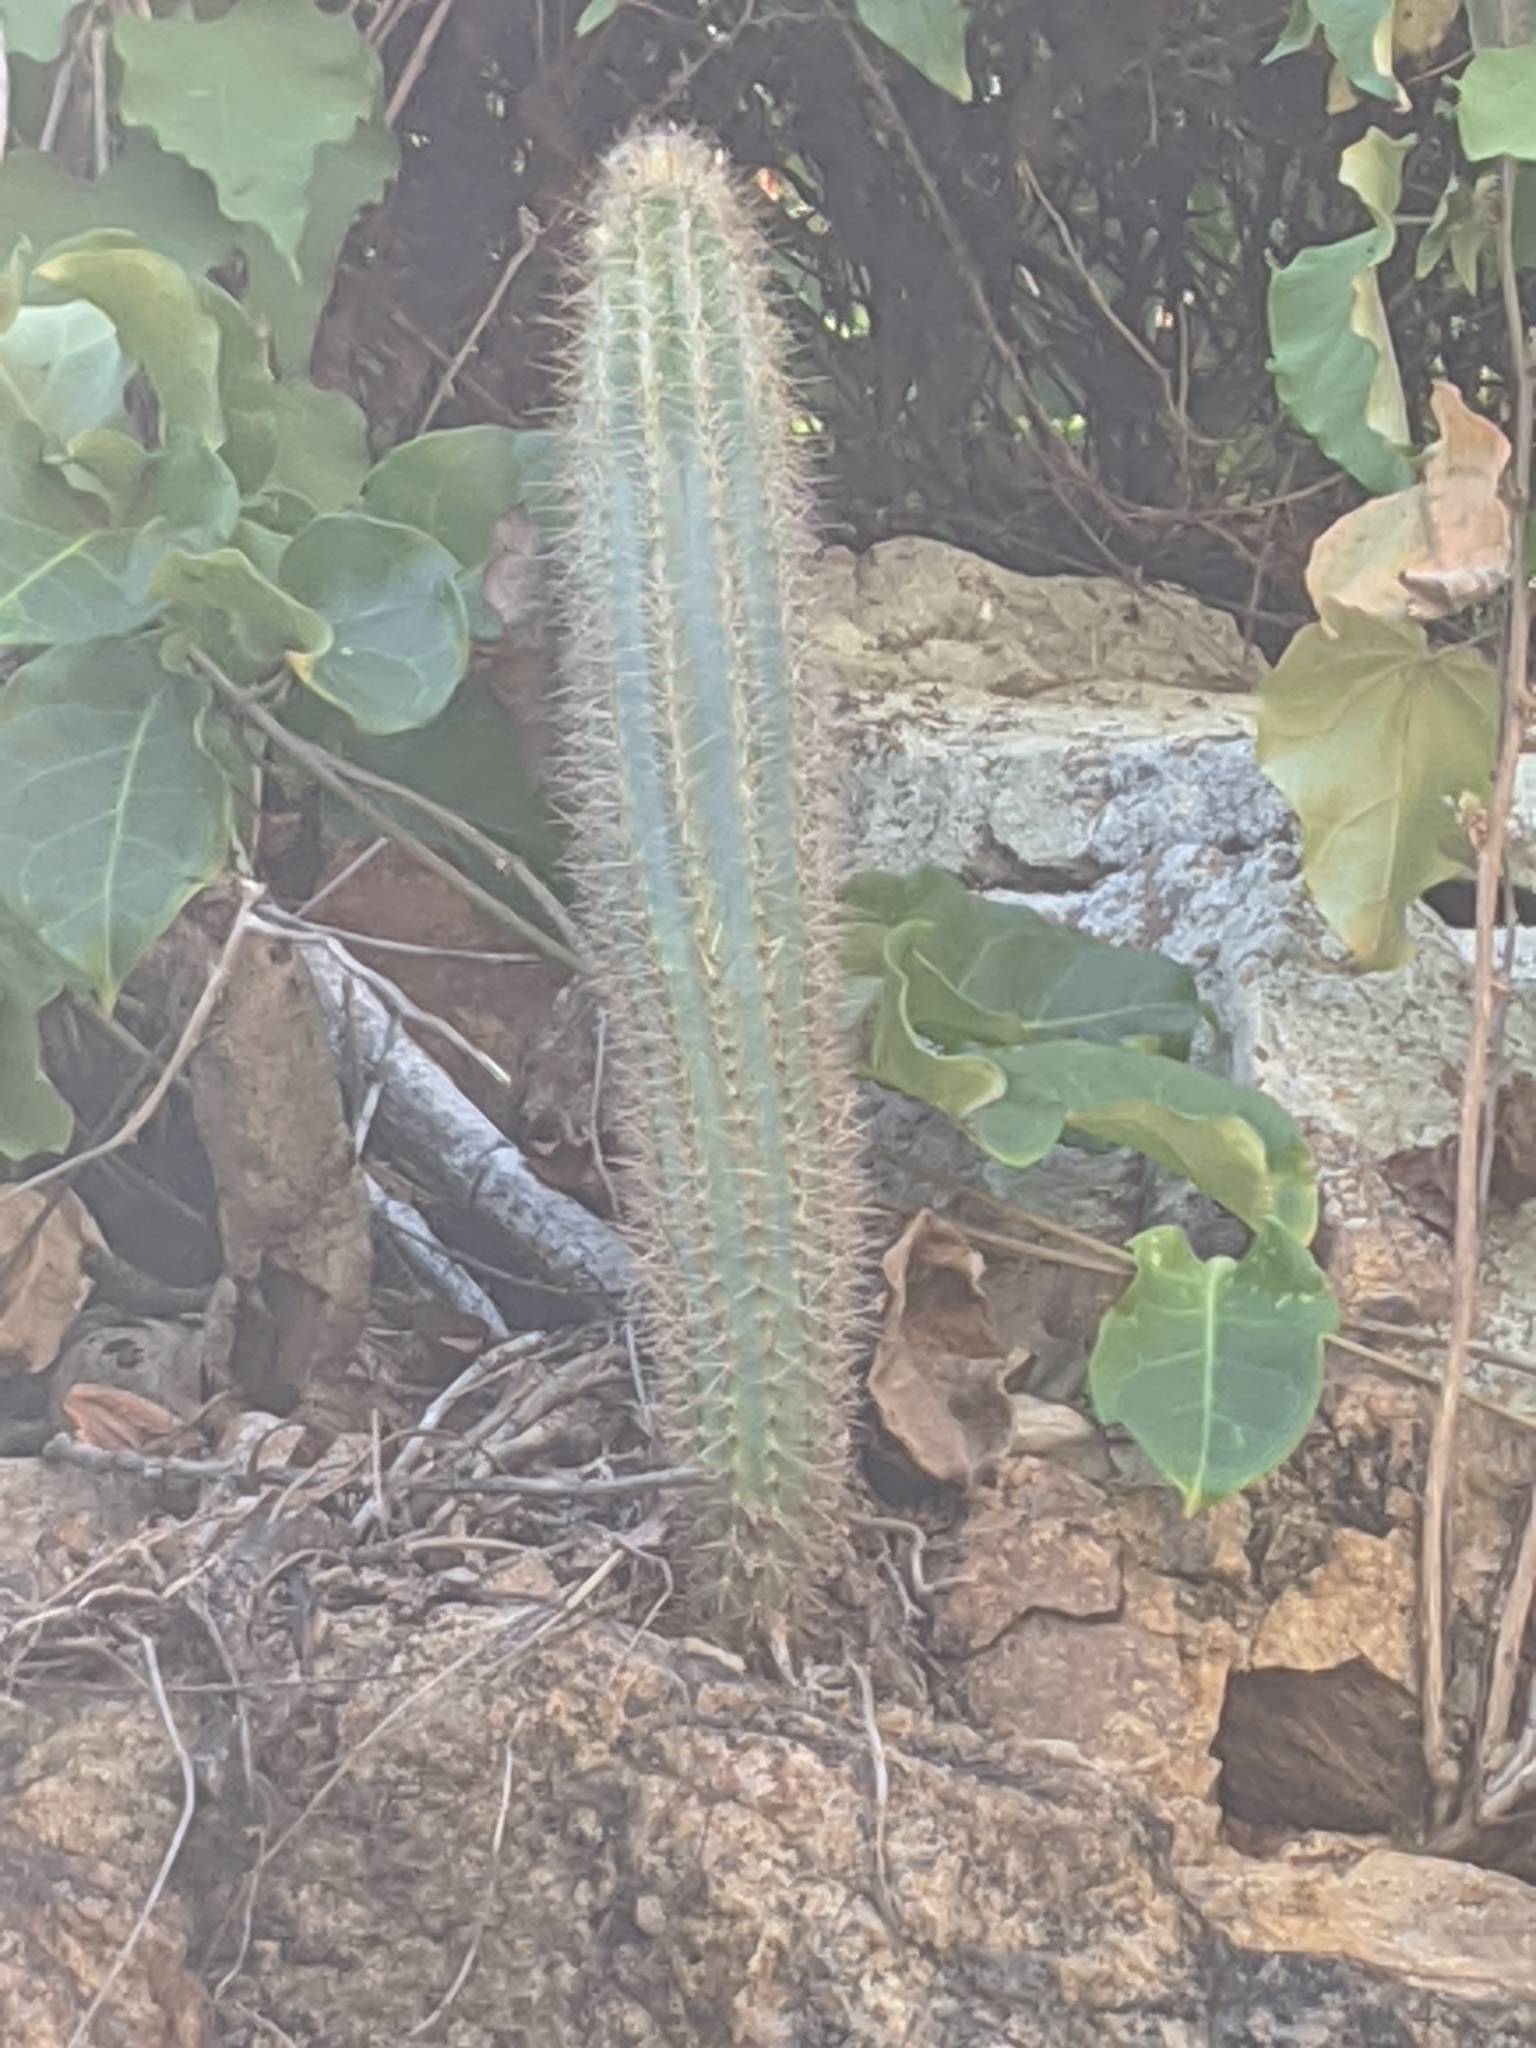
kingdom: Plantae
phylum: Tracheophyta
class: Magnoliopsida
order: Caryophyllales
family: Cactaceae
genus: Pilosocereus
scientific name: Pilosocereus purpusii
